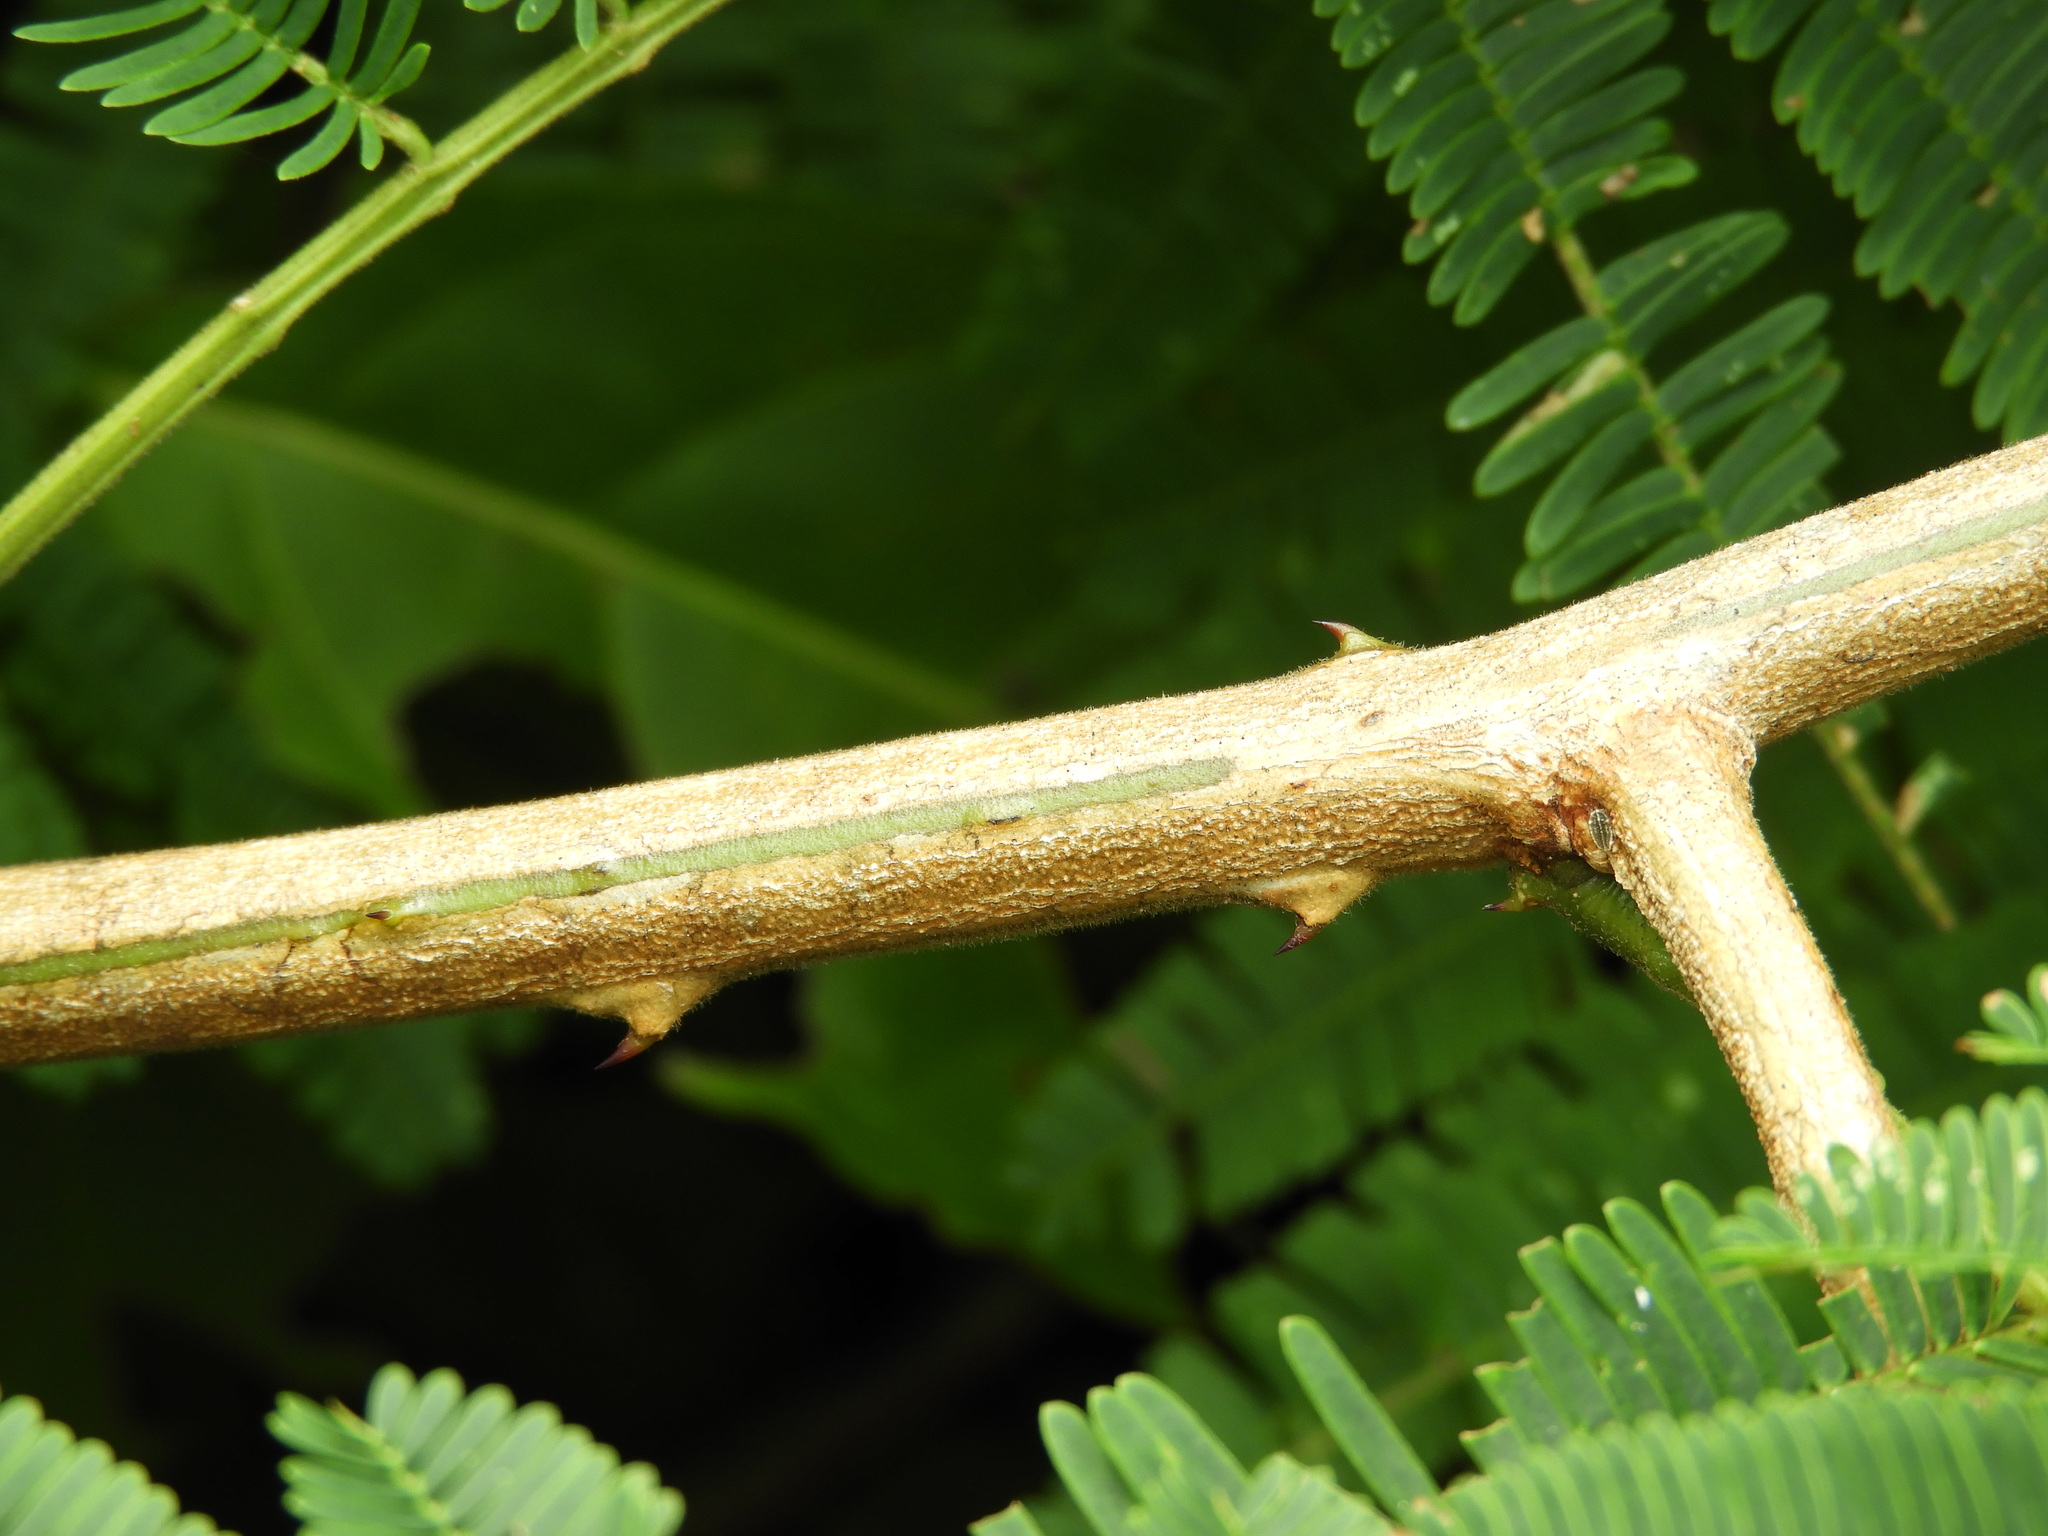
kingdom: Plantae
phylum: Tracheophyta
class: Magnoliopsida
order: Fabales
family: Fabaceae
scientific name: Fabaceae
